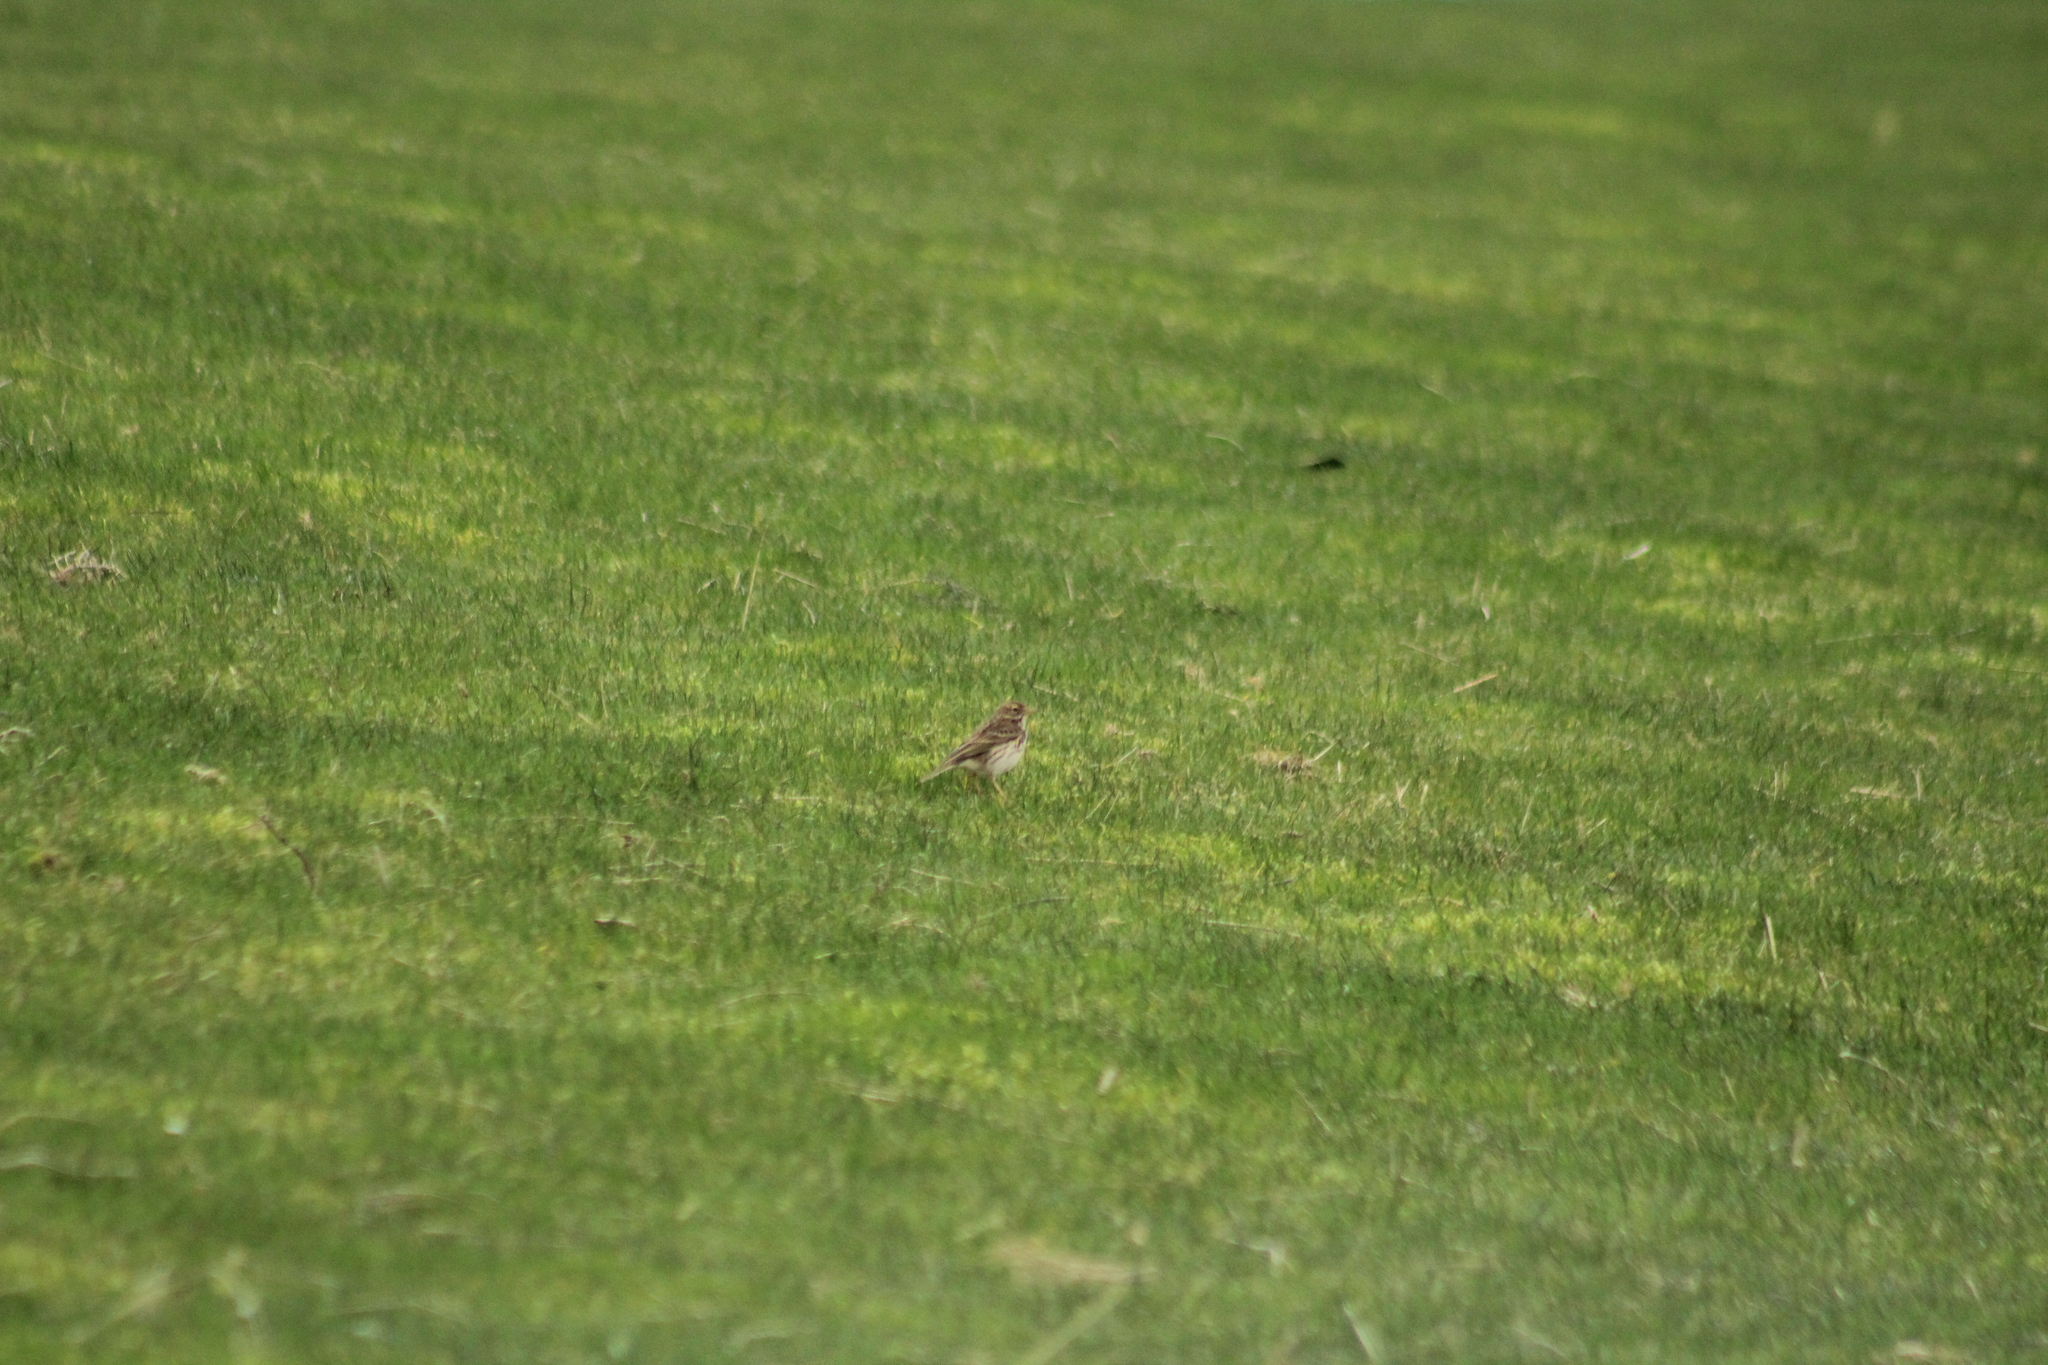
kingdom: Animalia
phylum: Chordata
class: Aves
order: Passeriformes
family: Motacillidae
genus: Anthus
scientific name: Anthus pratensis
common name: Meadow pipit
